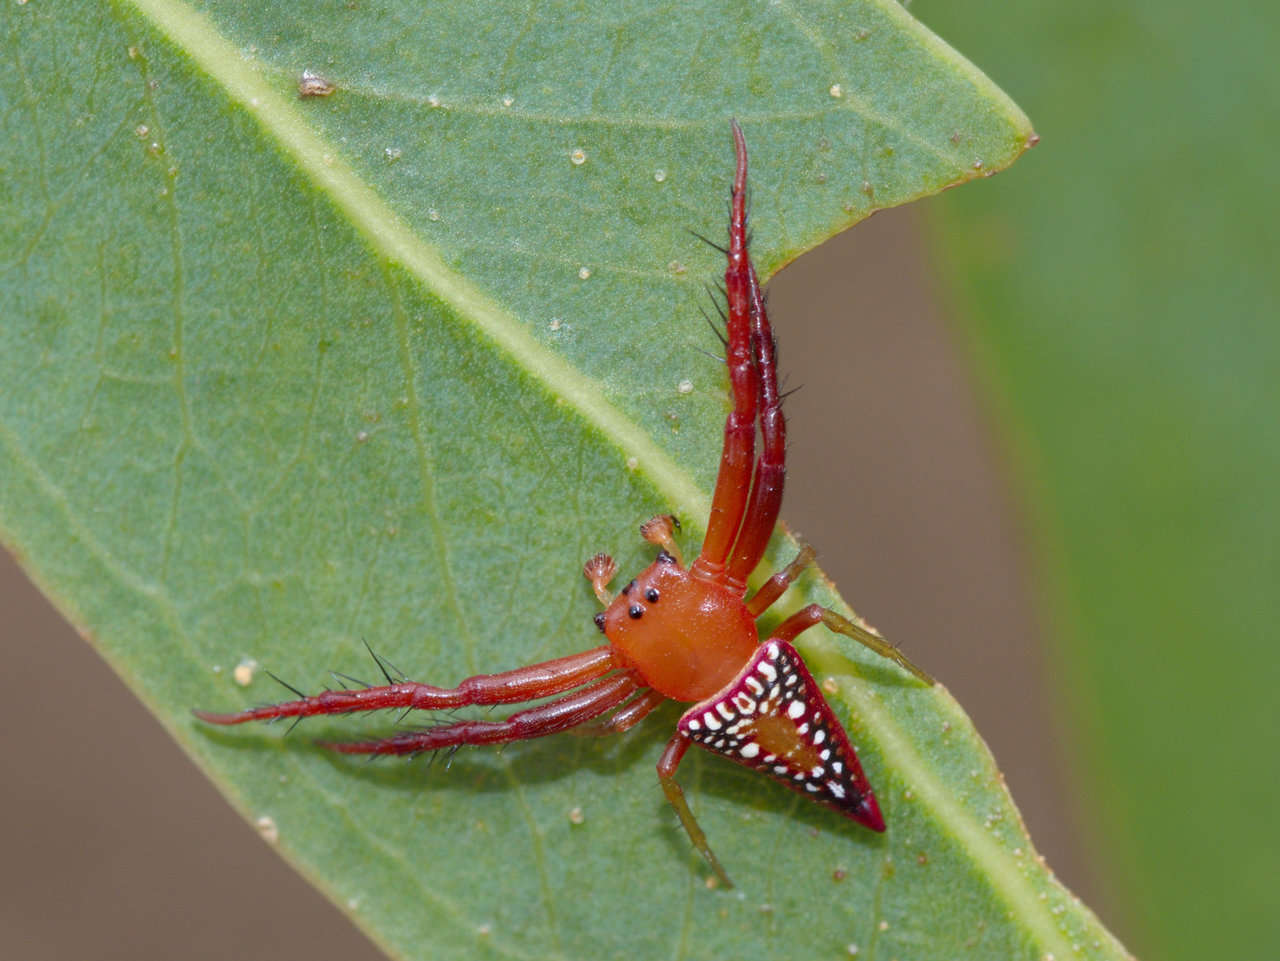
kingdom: Animalia
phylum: Arthropoda
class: Arachnida
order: Araneae
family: Arkyidae
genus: Arkys
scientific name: Arkys walckenaeri
